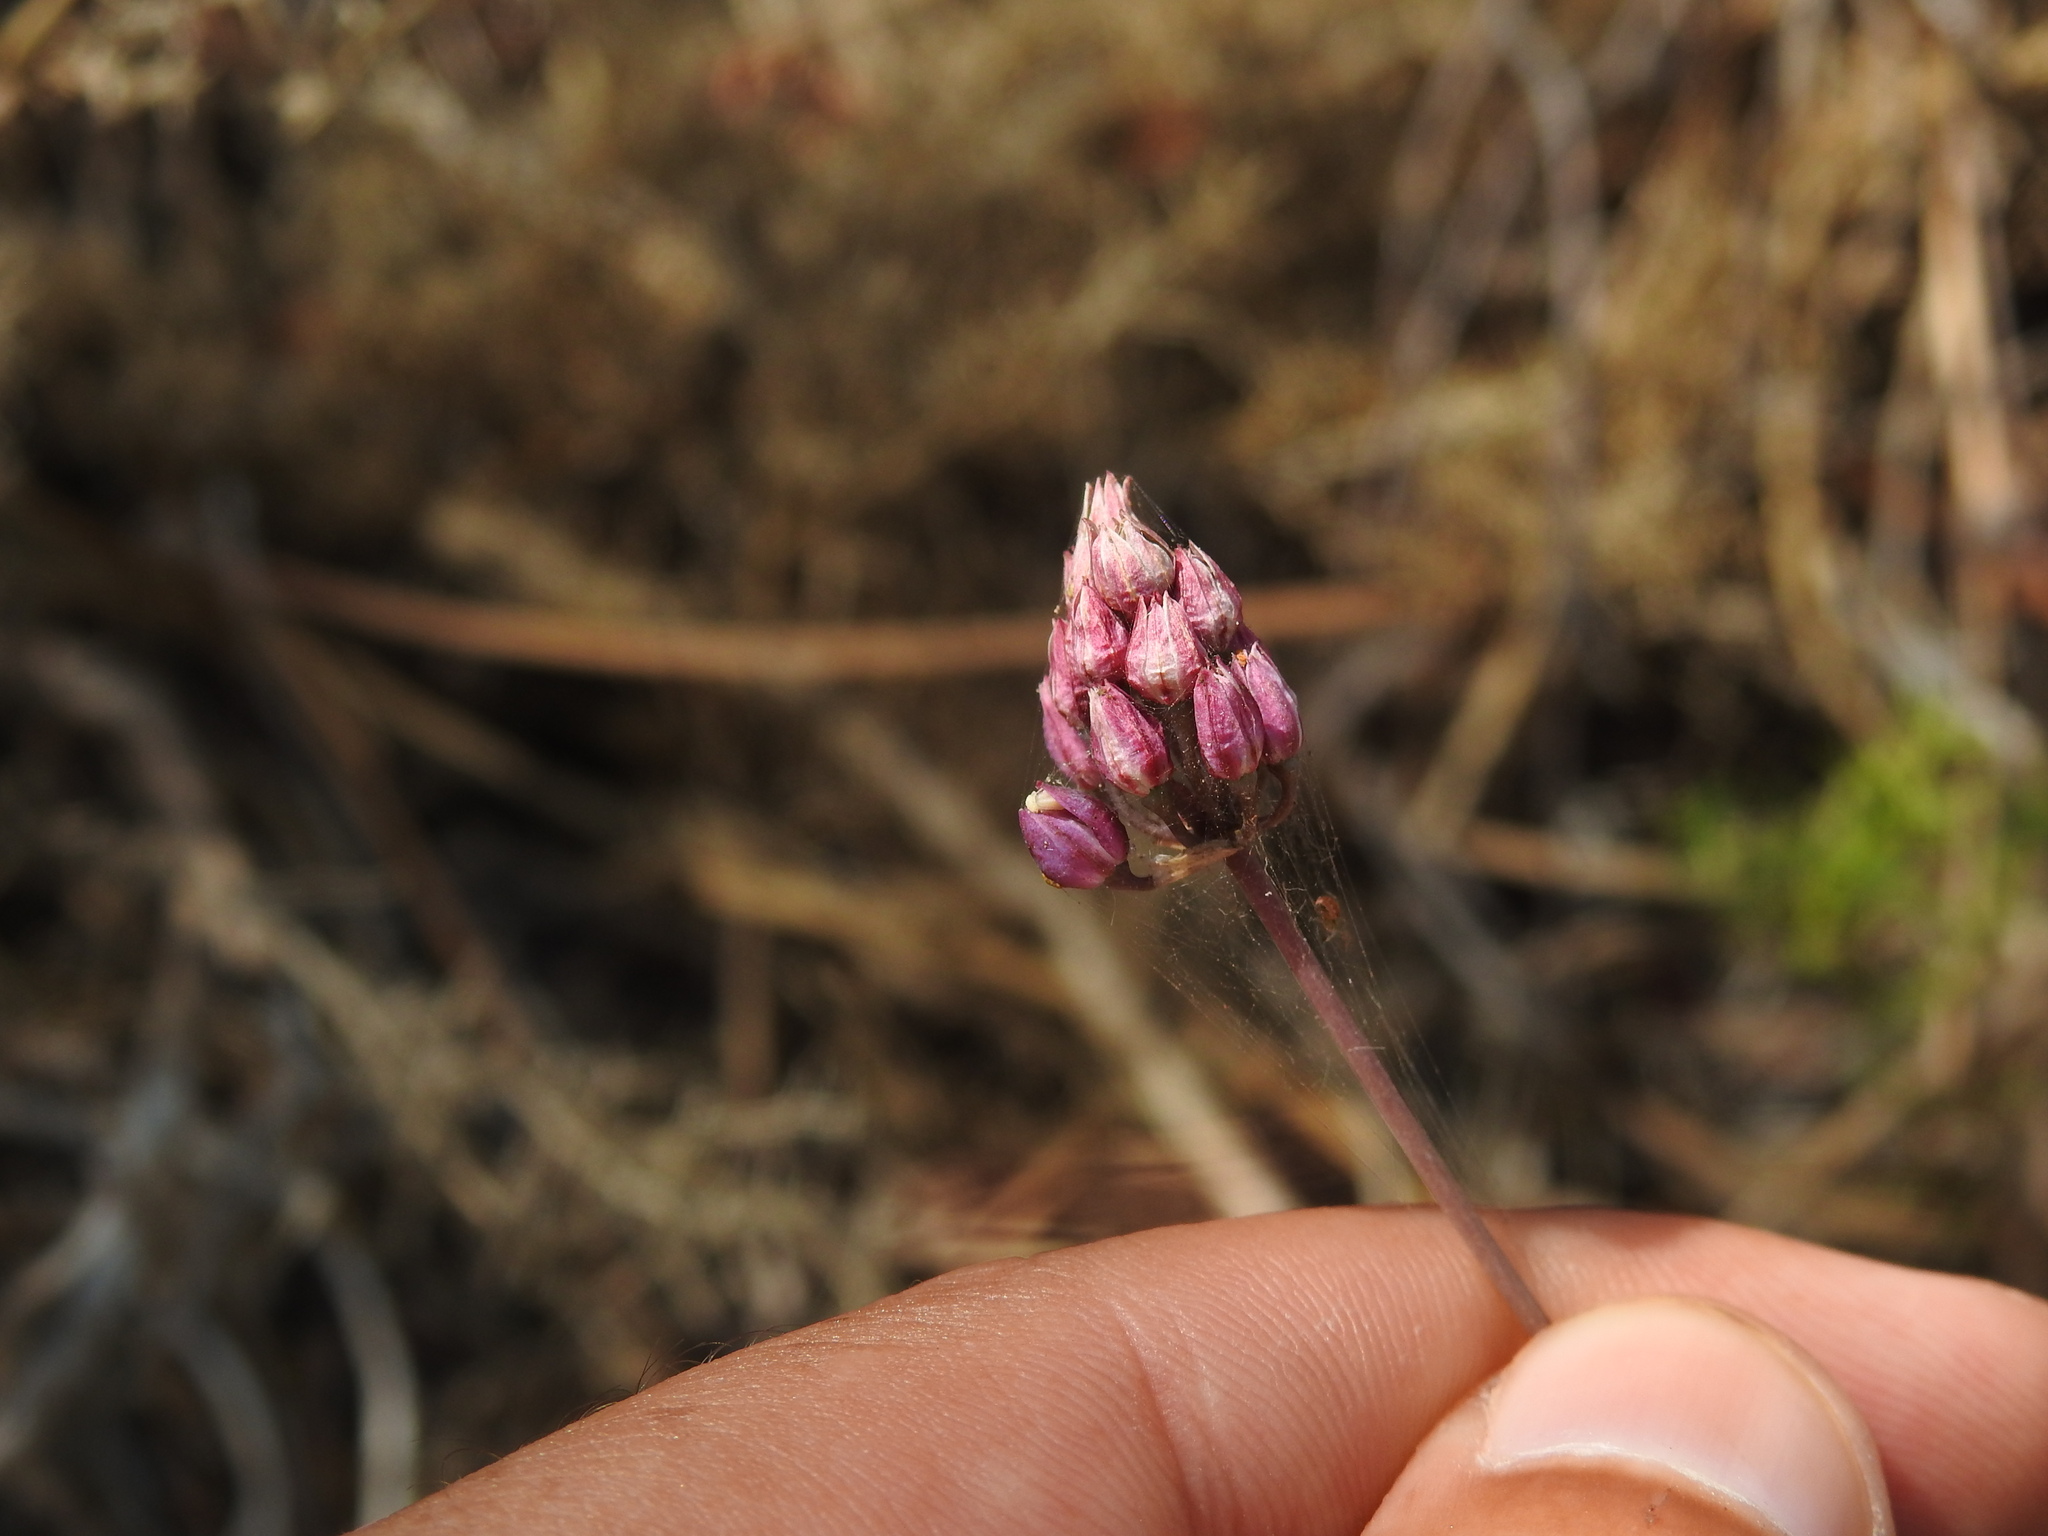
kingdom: Plantae
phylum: Tracheophyta
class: Liliopsida
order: Asparagales
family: Amaryllidaceae
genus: Allium
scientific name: Allium pruinatum
